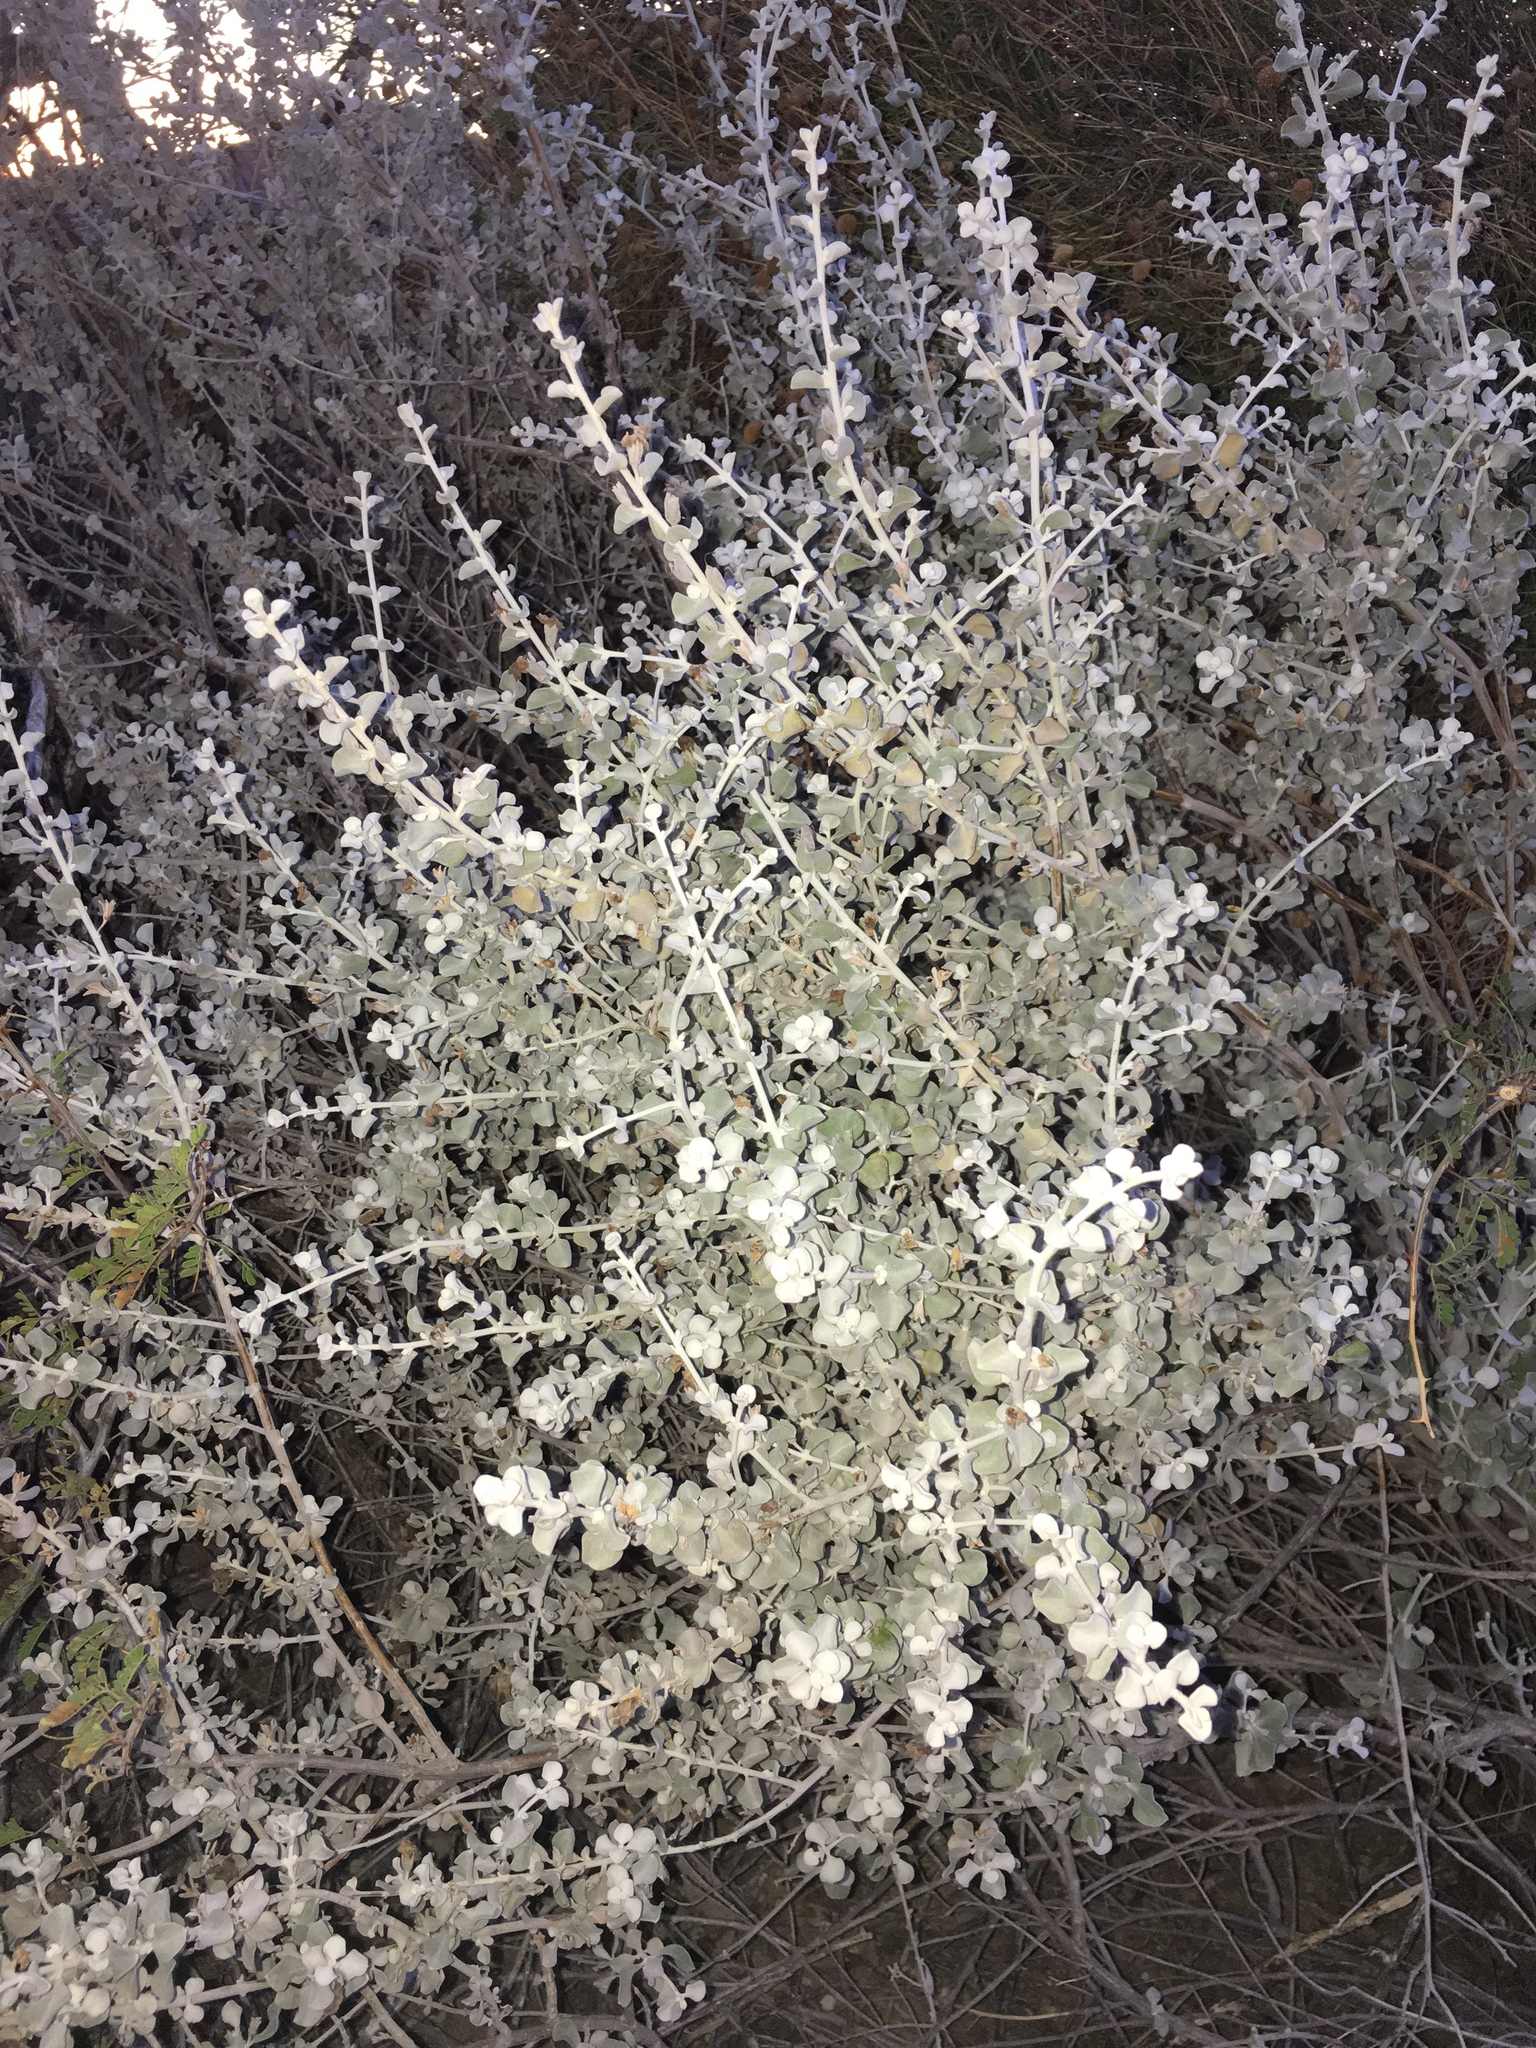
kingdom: Plantae
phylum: Tracheophyta
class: Magnoliopsida
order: Lamiales
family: Scrophulariaceae
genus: Leucophyllum
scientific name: Leucophyllum candidum
